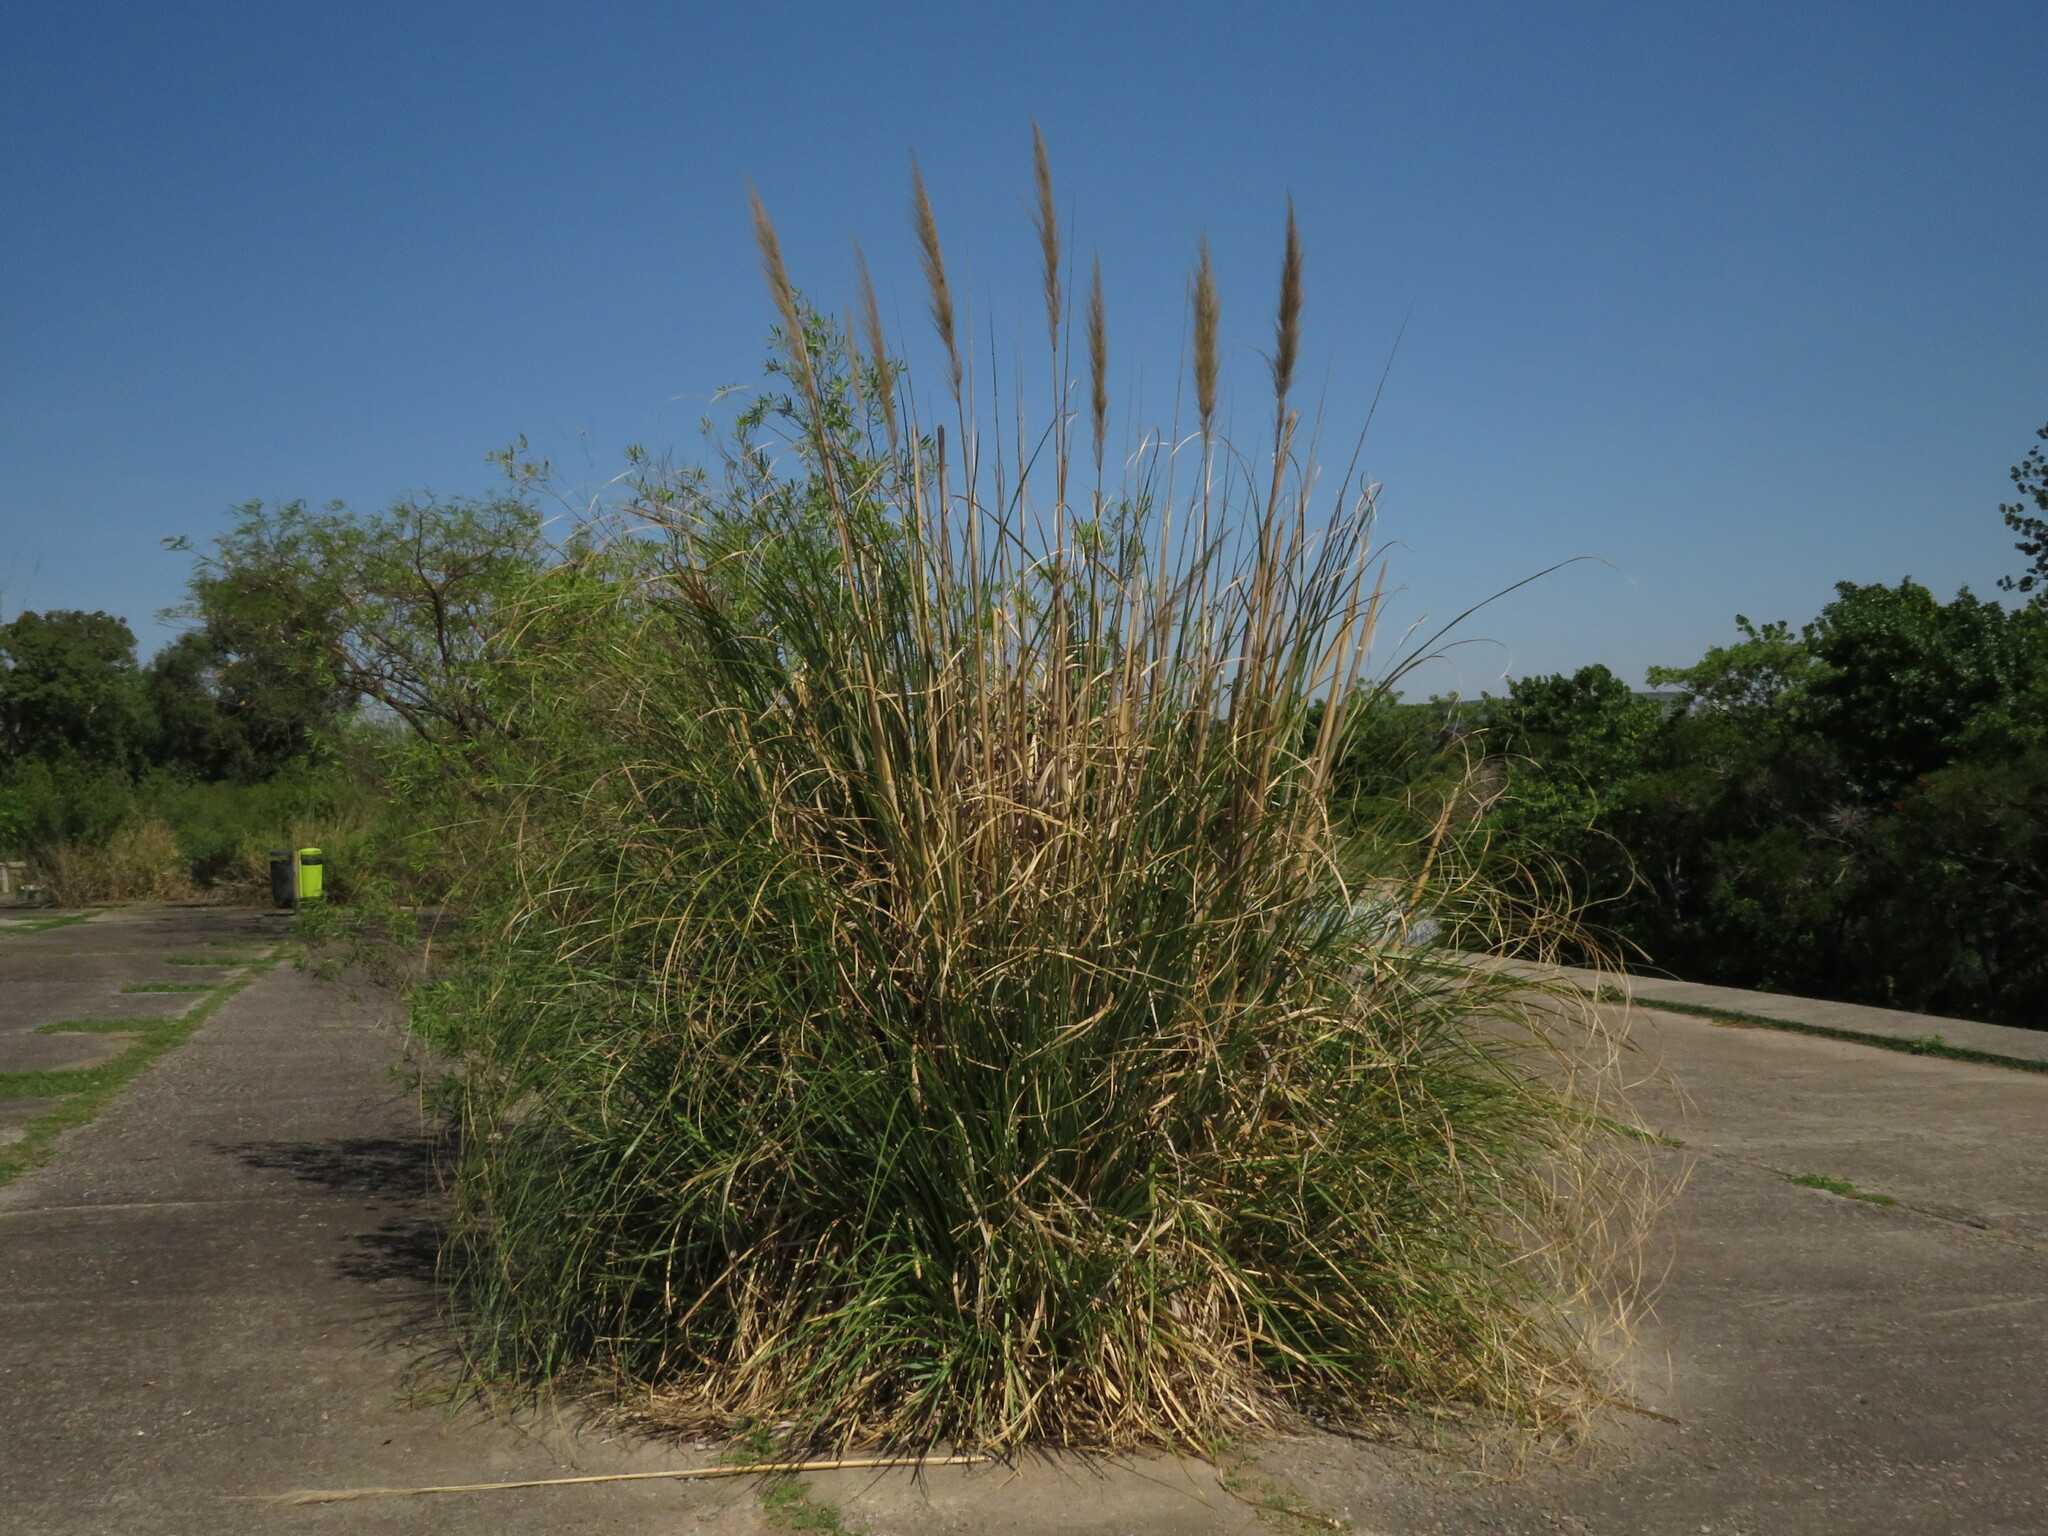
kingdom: Plantae
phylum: Tracheophyta
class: Liliopsida
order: Poales
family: Poaceae
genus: Cortaderia
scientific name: Cortaderia selloana
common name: Uruguayan pampas grass
